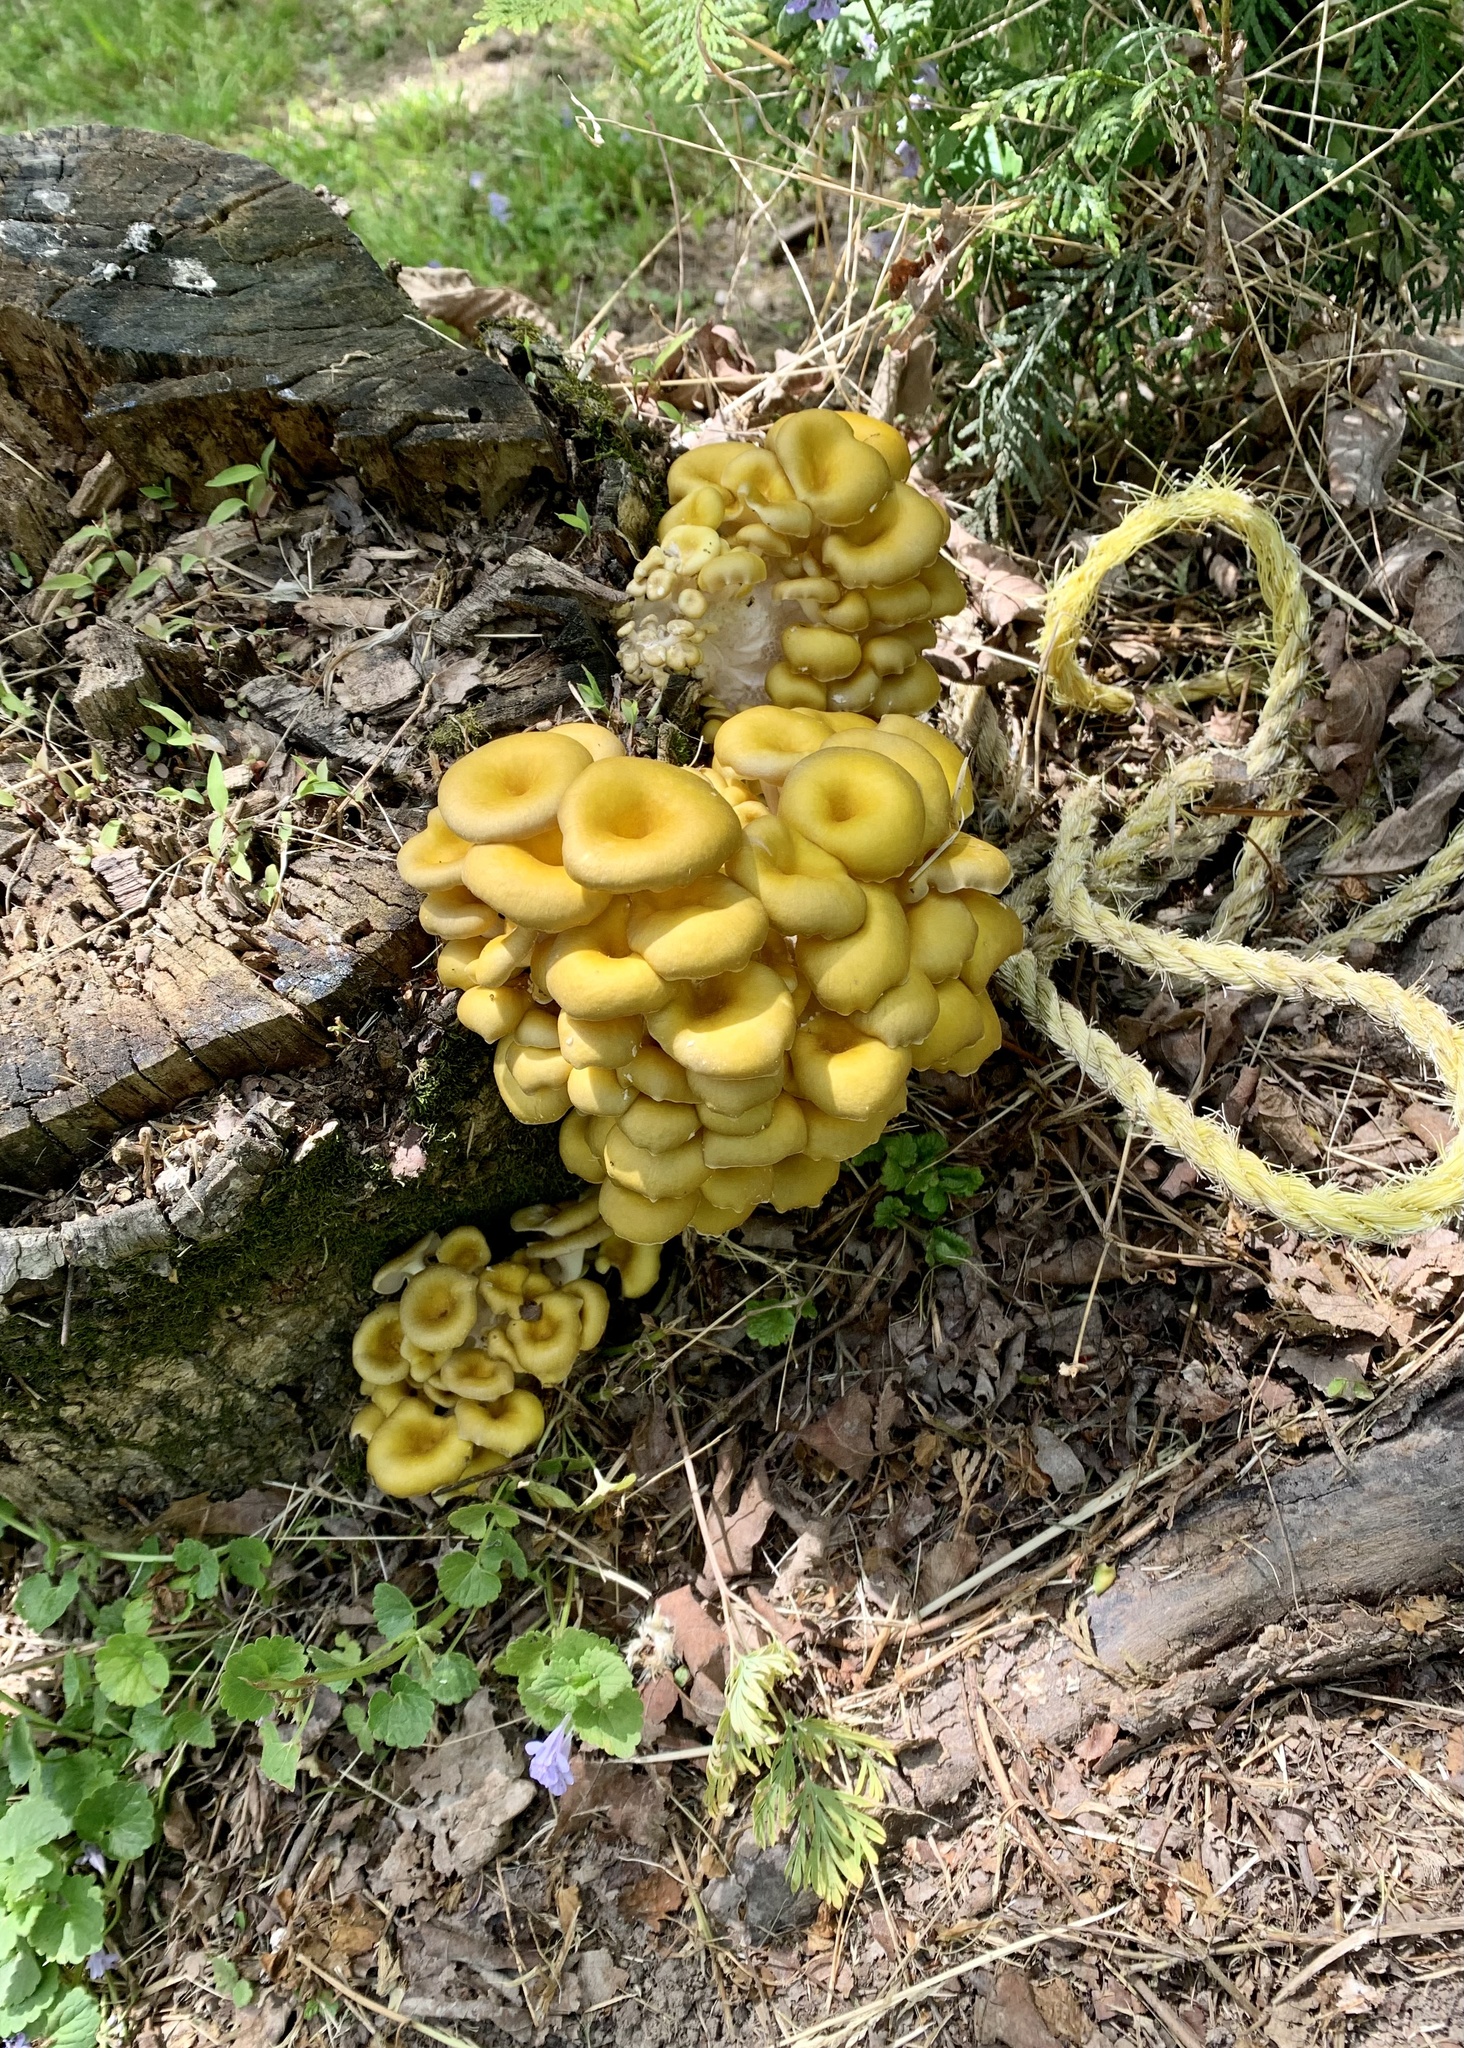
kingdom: Fungi
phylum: Basidiomycota
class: Agaricomycetes
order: Agaricales
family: Pleurotaceae
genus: Pleurotus
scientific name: Pleurotus citrinopileatus
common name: Golden oyster mushroom
